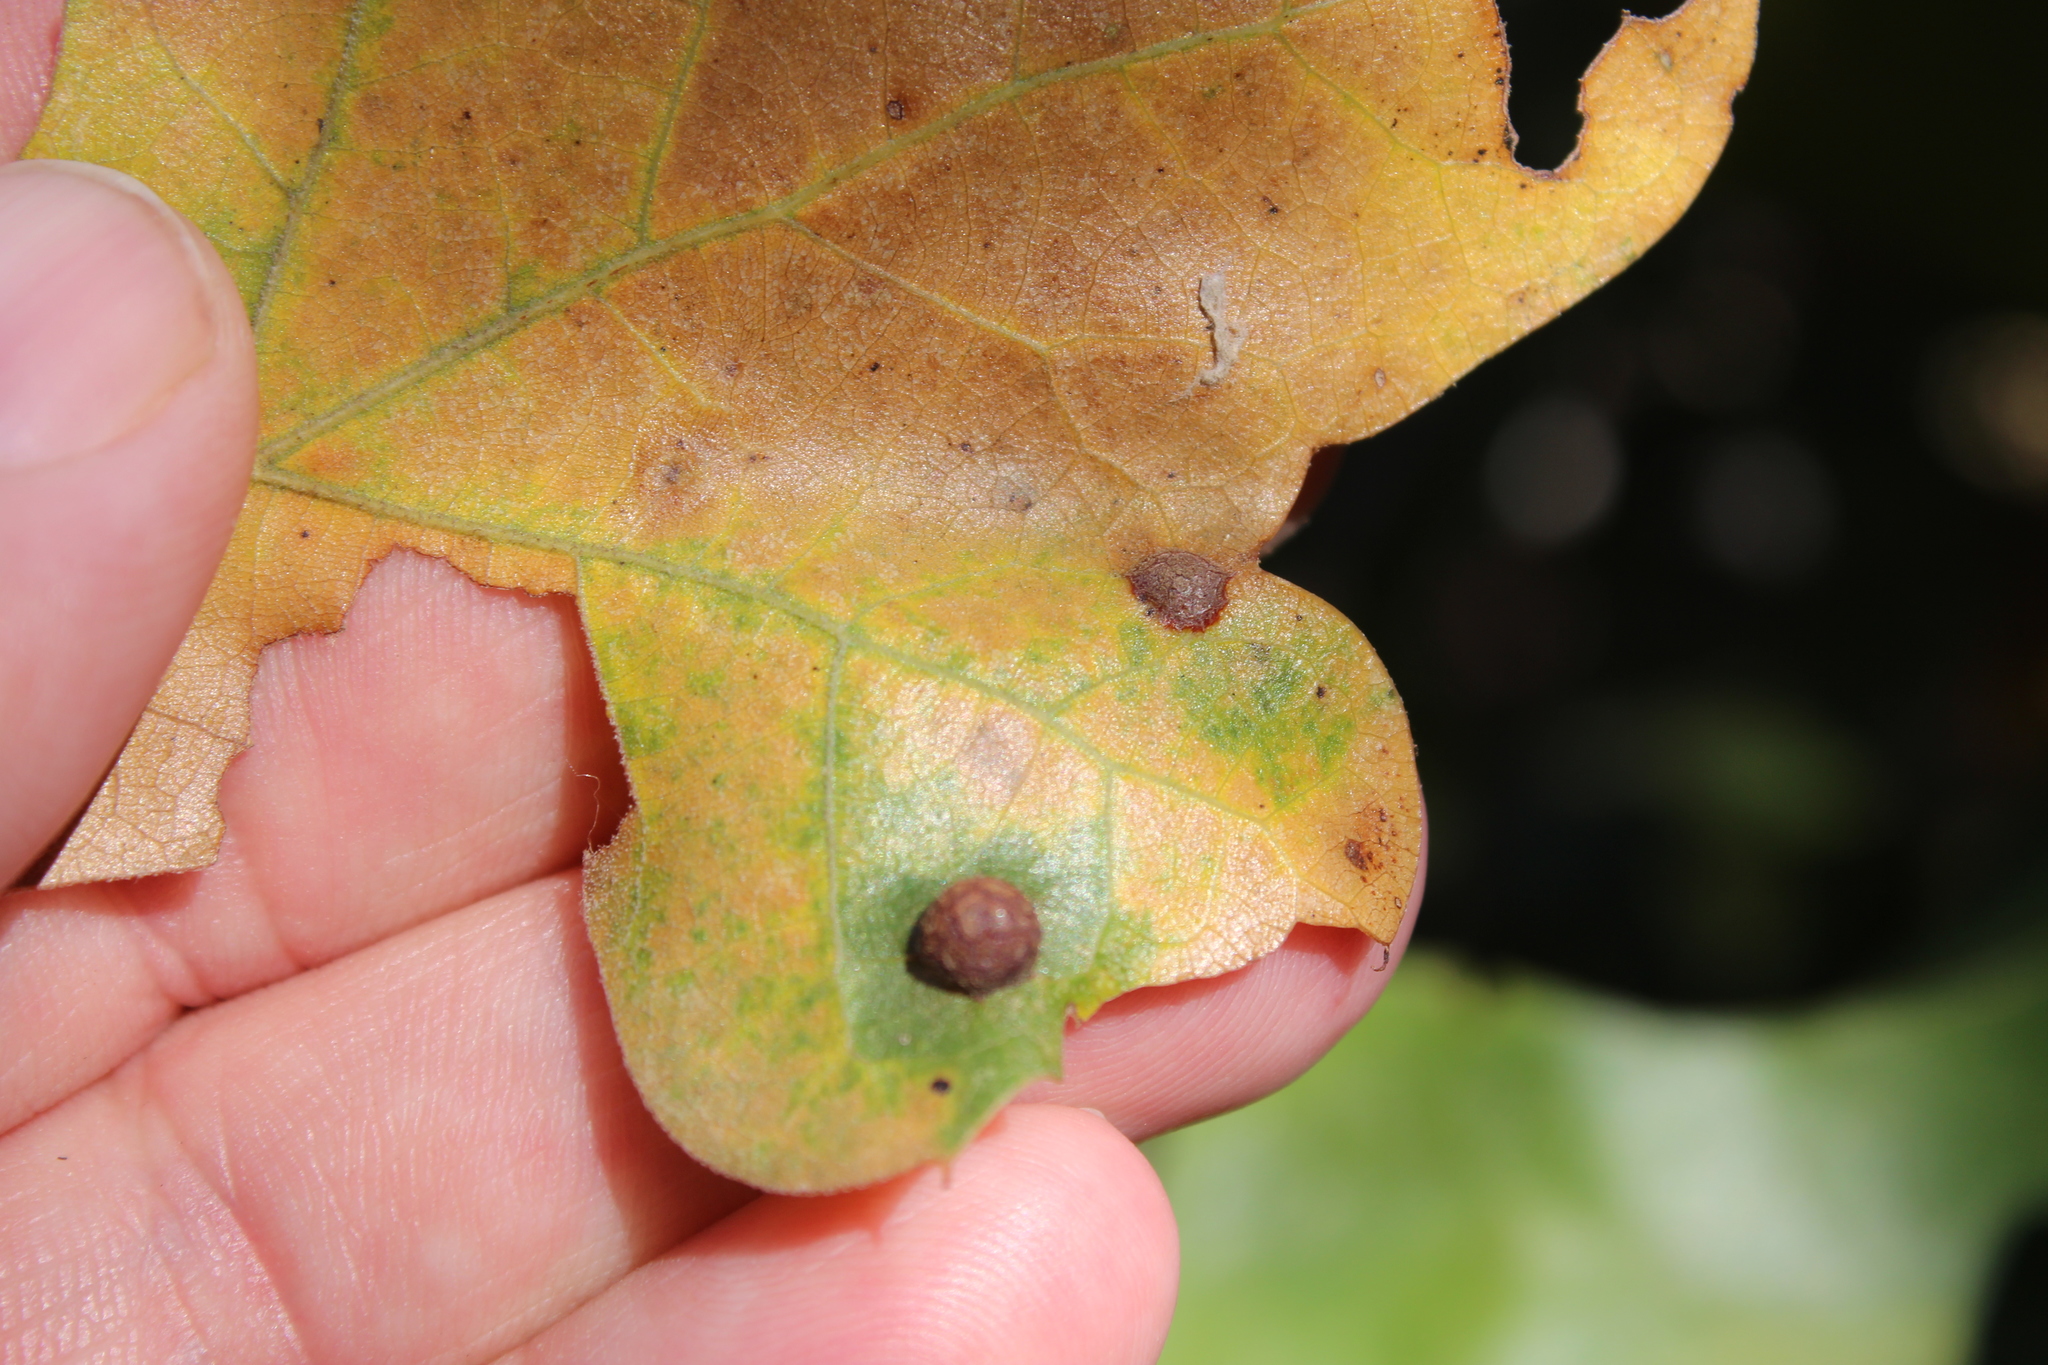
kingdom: Animalia
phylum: Arthropoda
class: Insecta
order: Diptera
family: Cecidomyiidae
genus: Polystepha
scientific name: Polystepha pilulae
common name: Oak leaf gall midge
